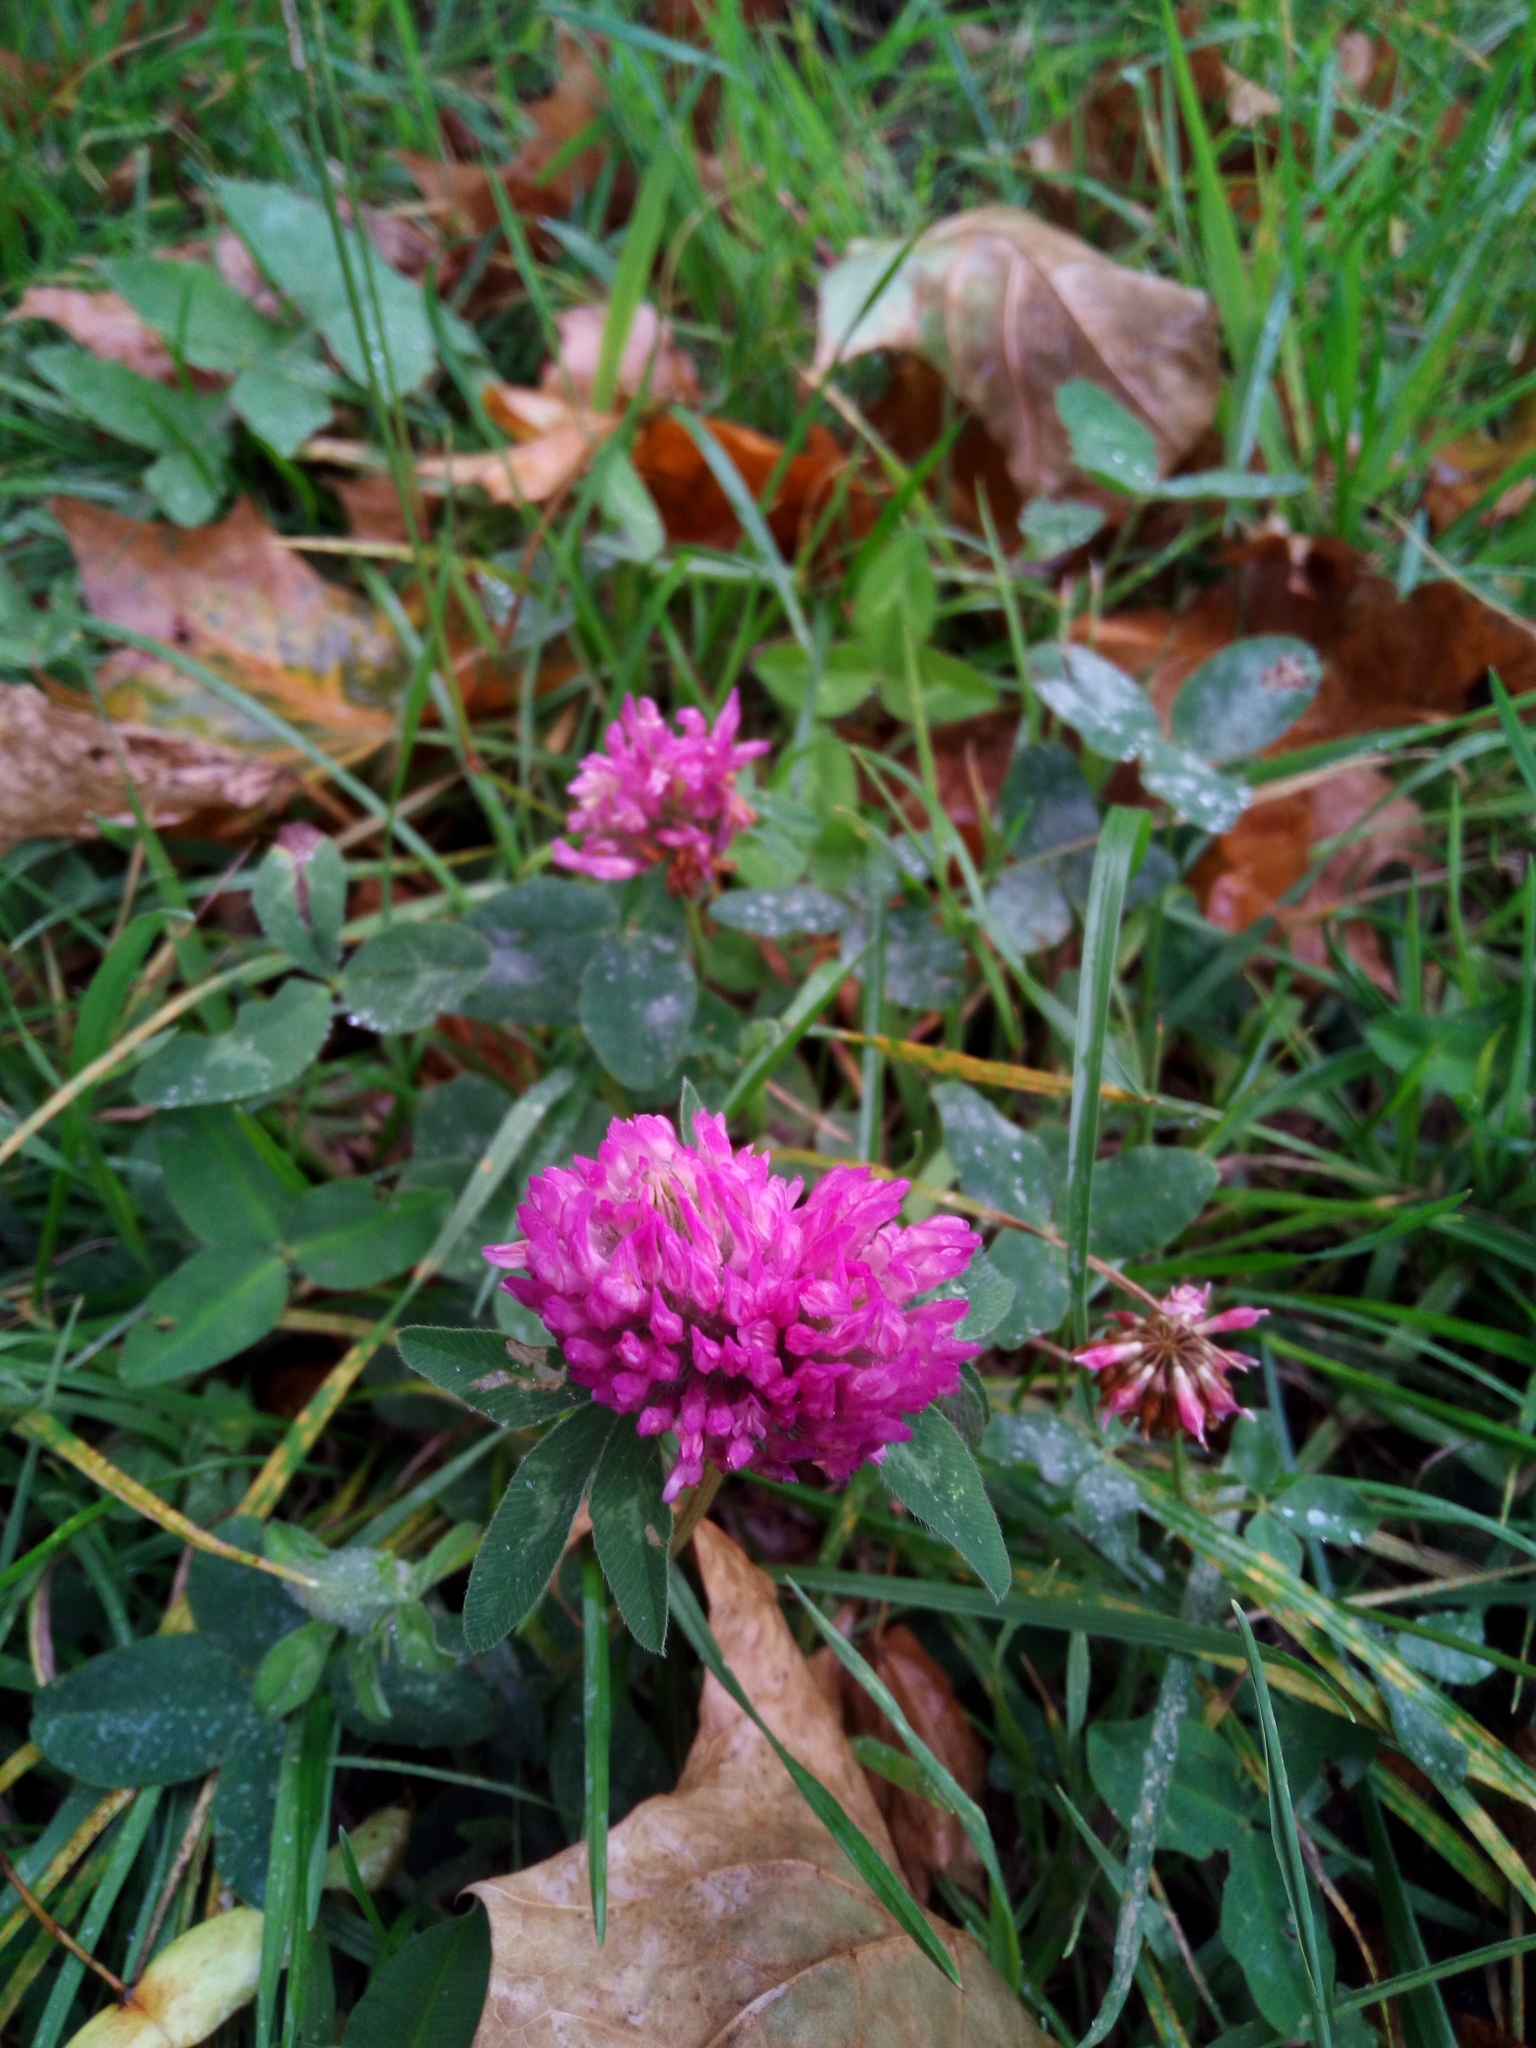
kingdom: Plantae
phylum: Tracheophyta
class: Magnoliopsida
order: Fabales
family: Fabaceae
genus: Trifolium
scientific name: Trifolium pratense
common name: Red clover
